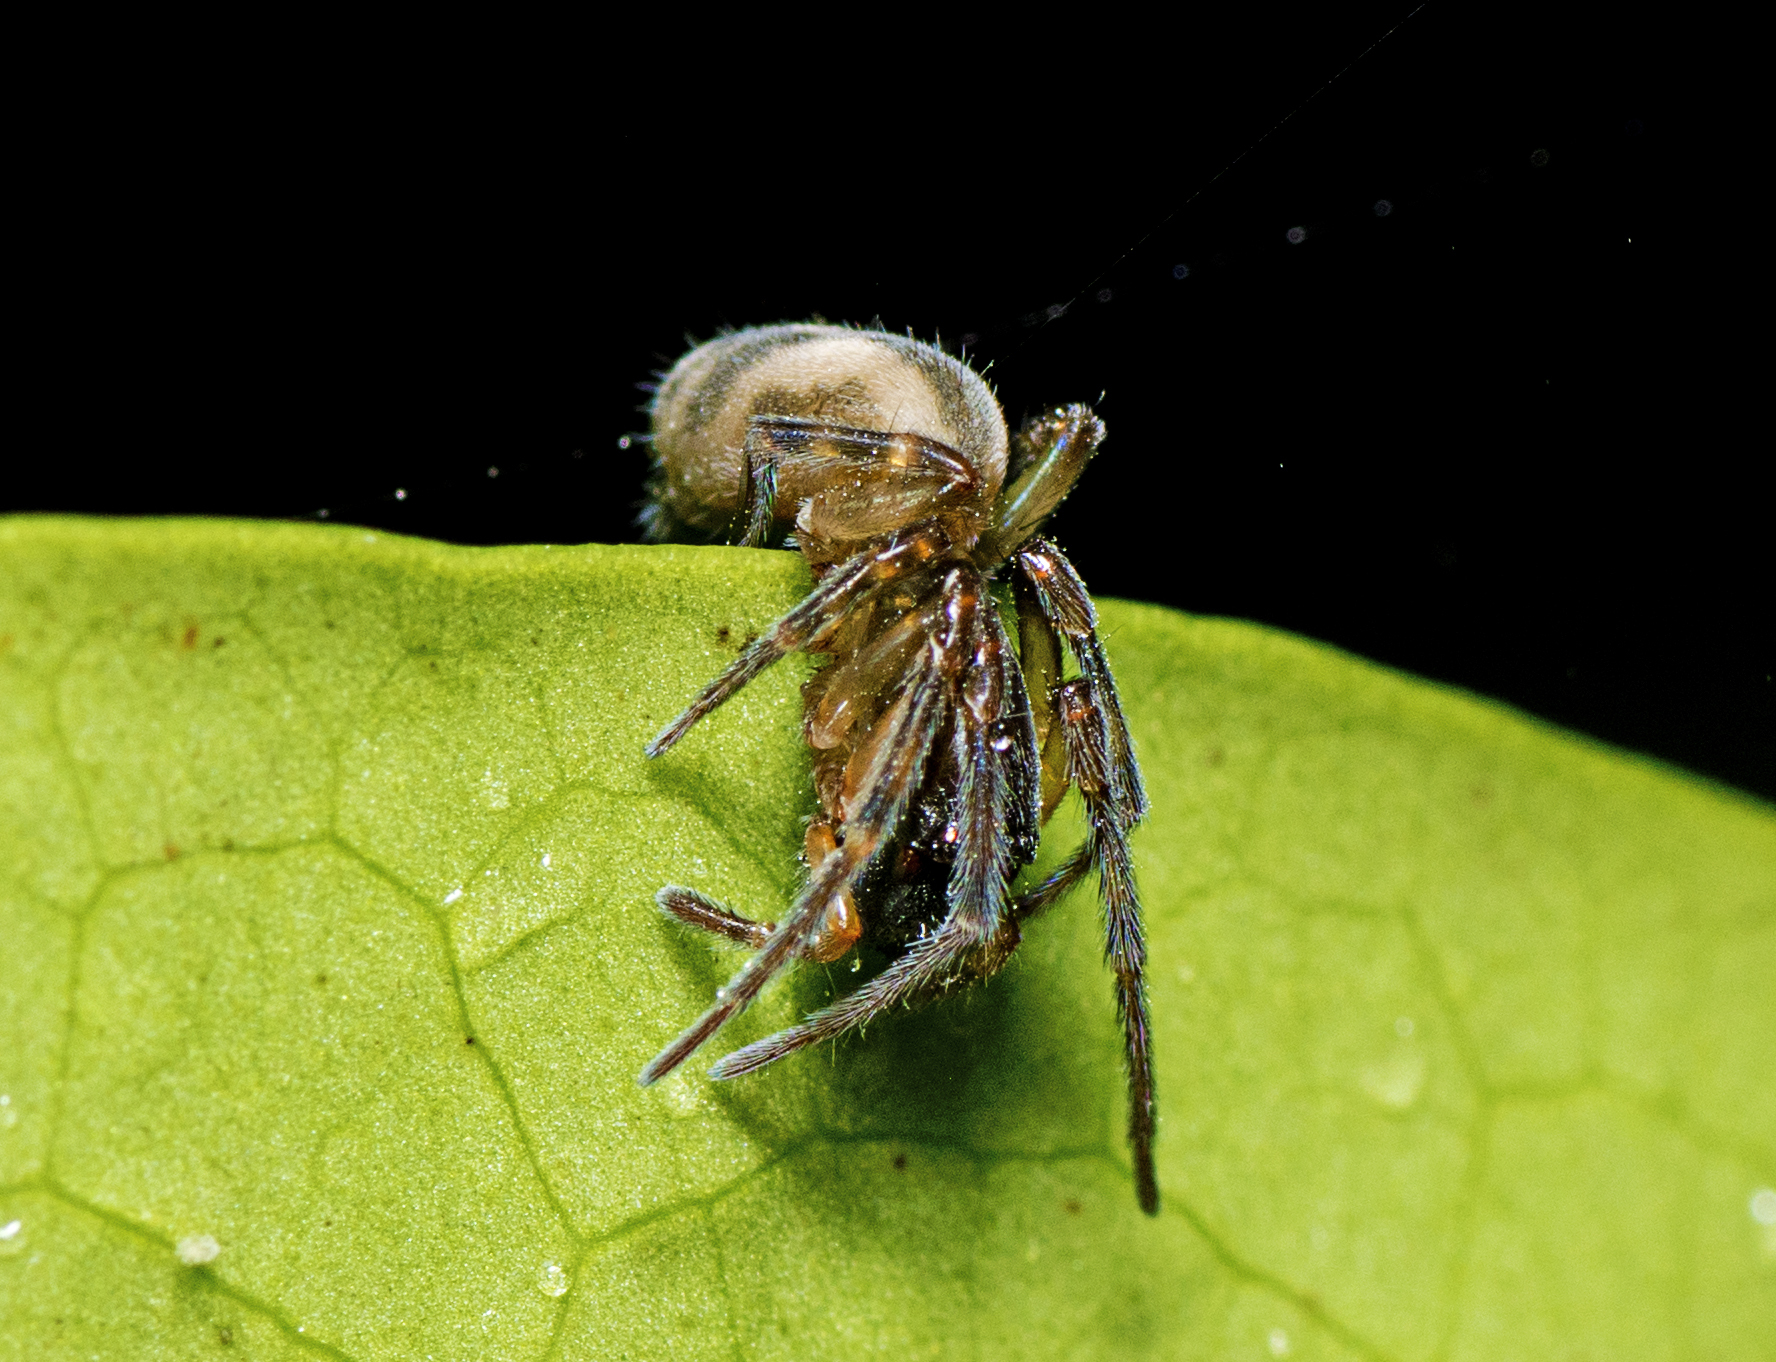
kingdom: Animalia
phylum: Arthropoda
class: Arachnida
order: Araneae
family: Desidae
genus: Paramatachia
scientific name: Paramatachia decorata
